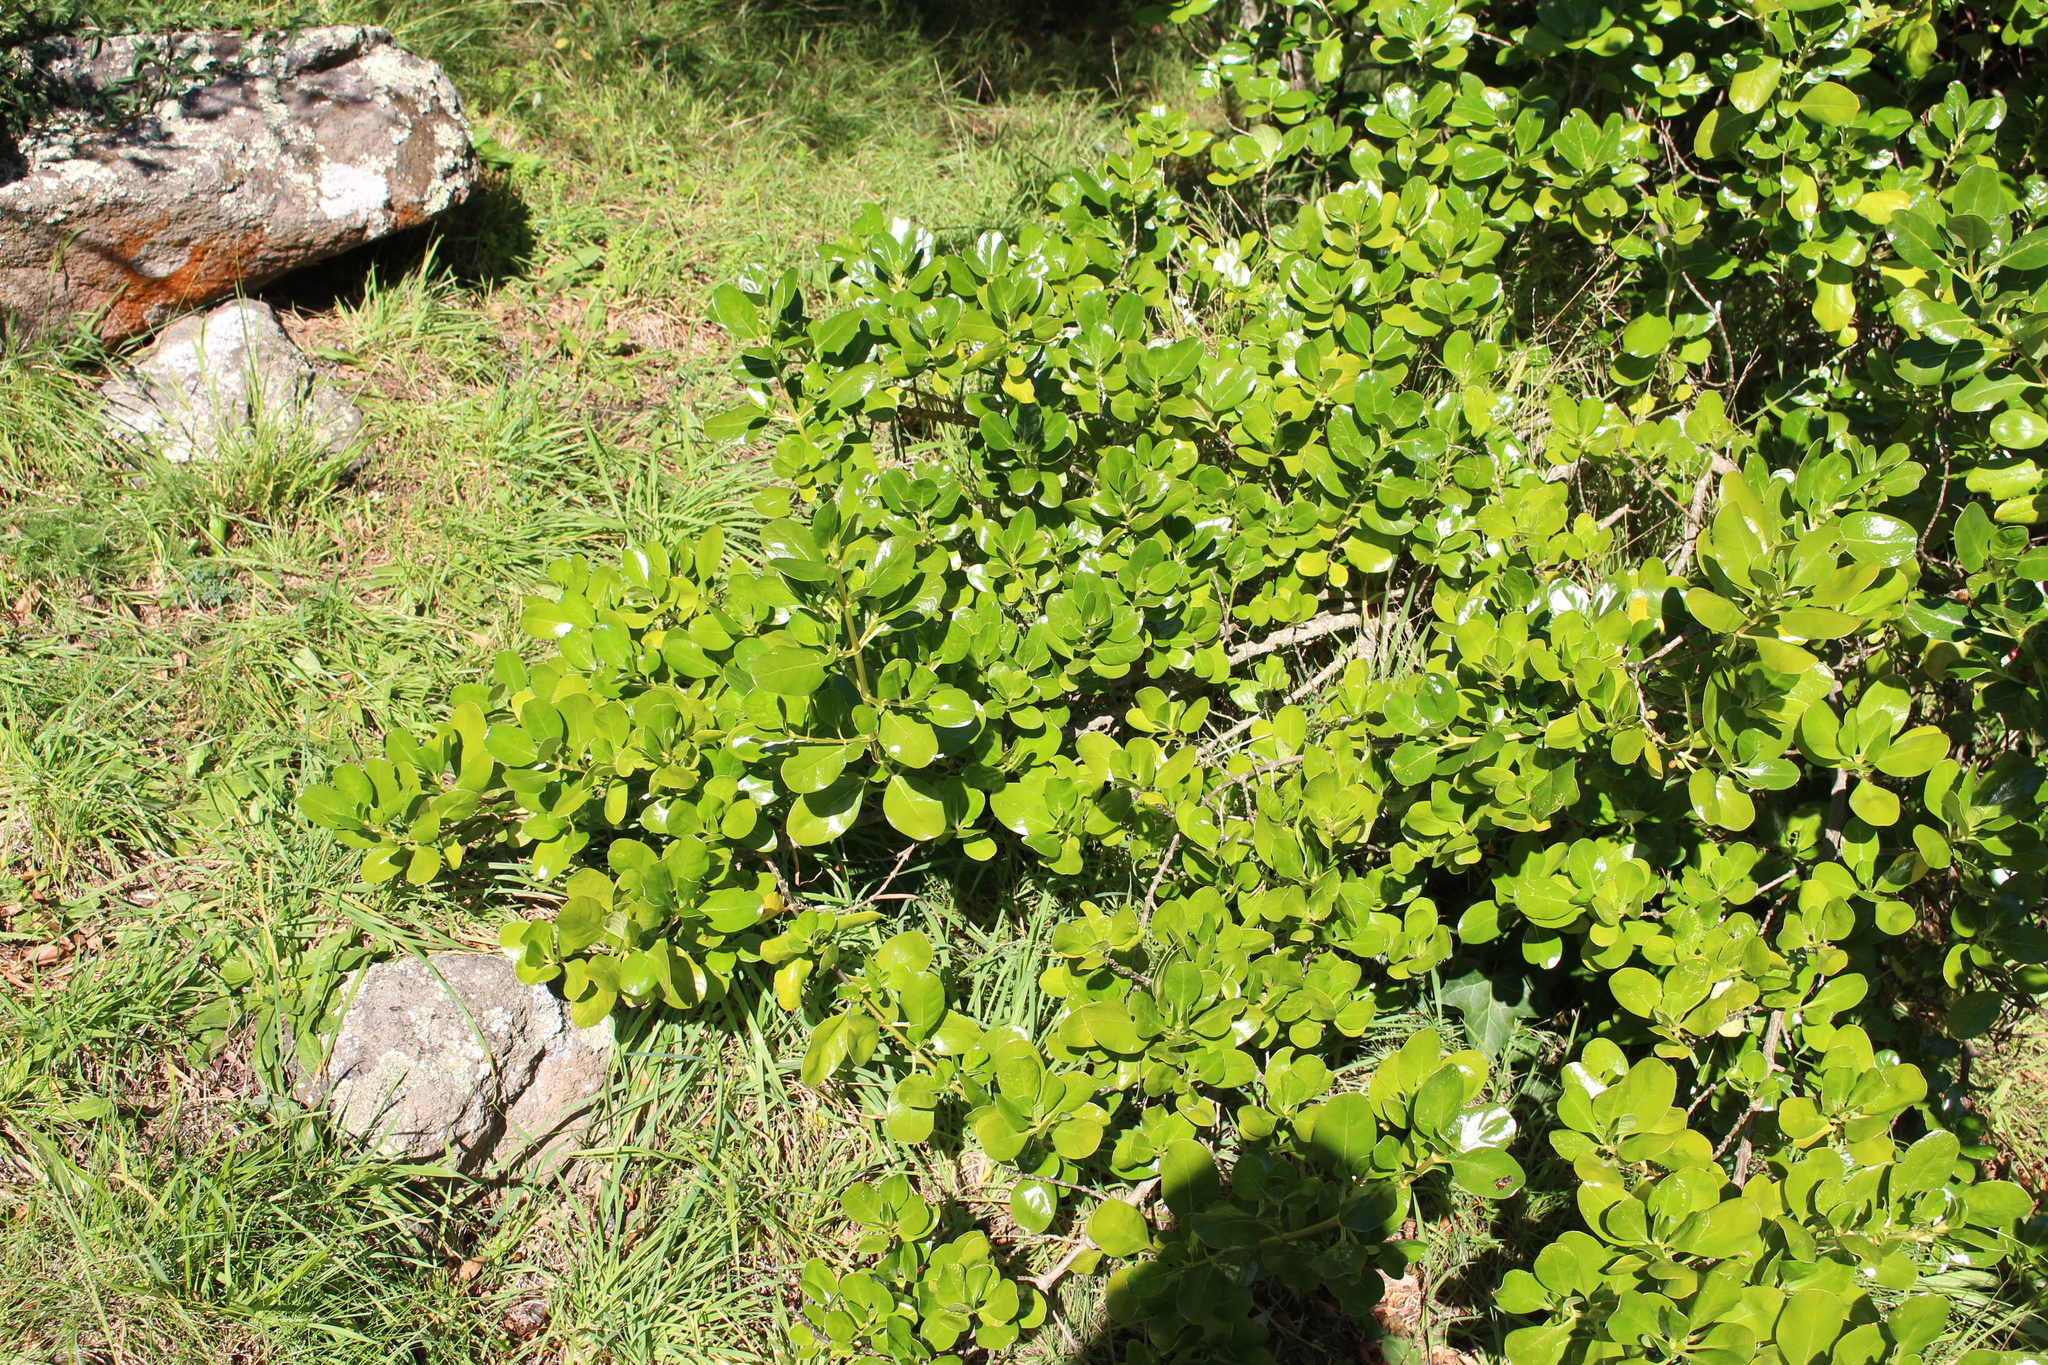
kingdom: Plantae
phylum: Tracheophyta
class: Magnoliopsida
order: Gentianales
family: Rubiaceae
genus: Coprosma
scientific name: Coprosma repens
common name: Tree bedstraw
